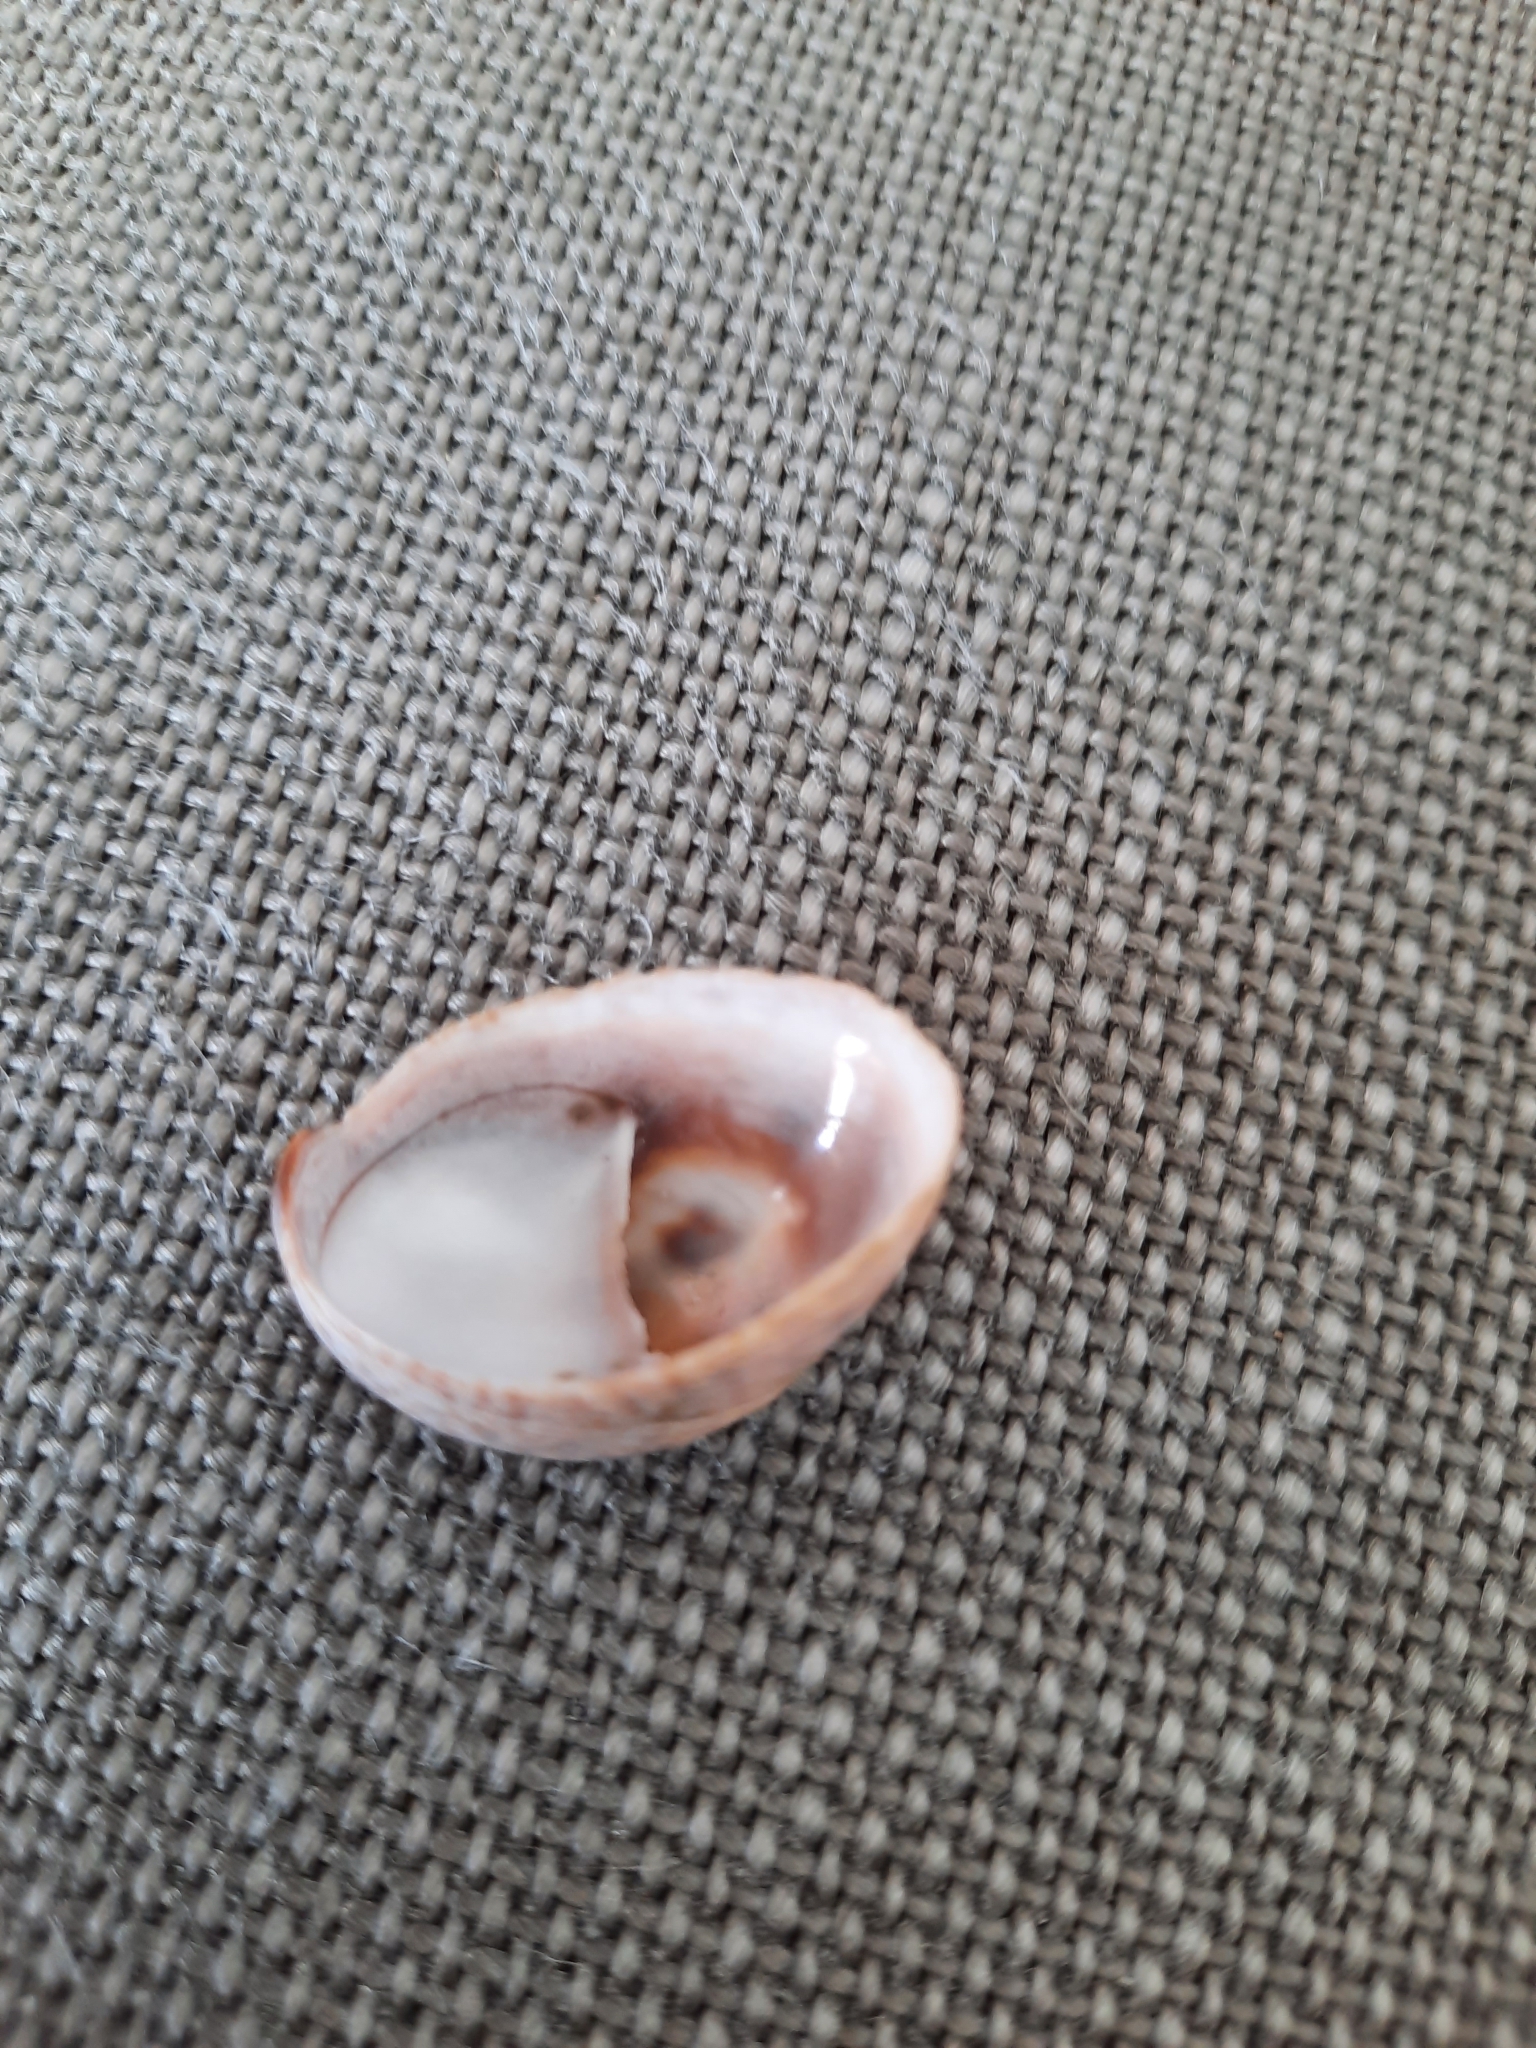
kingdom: Animalia
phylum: Mollusca
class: Gastropoda
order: Littorinimorpha
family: Calyptraeidae
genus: Crepidula
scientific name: Crepidula fornicata
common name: Slipper limpet
